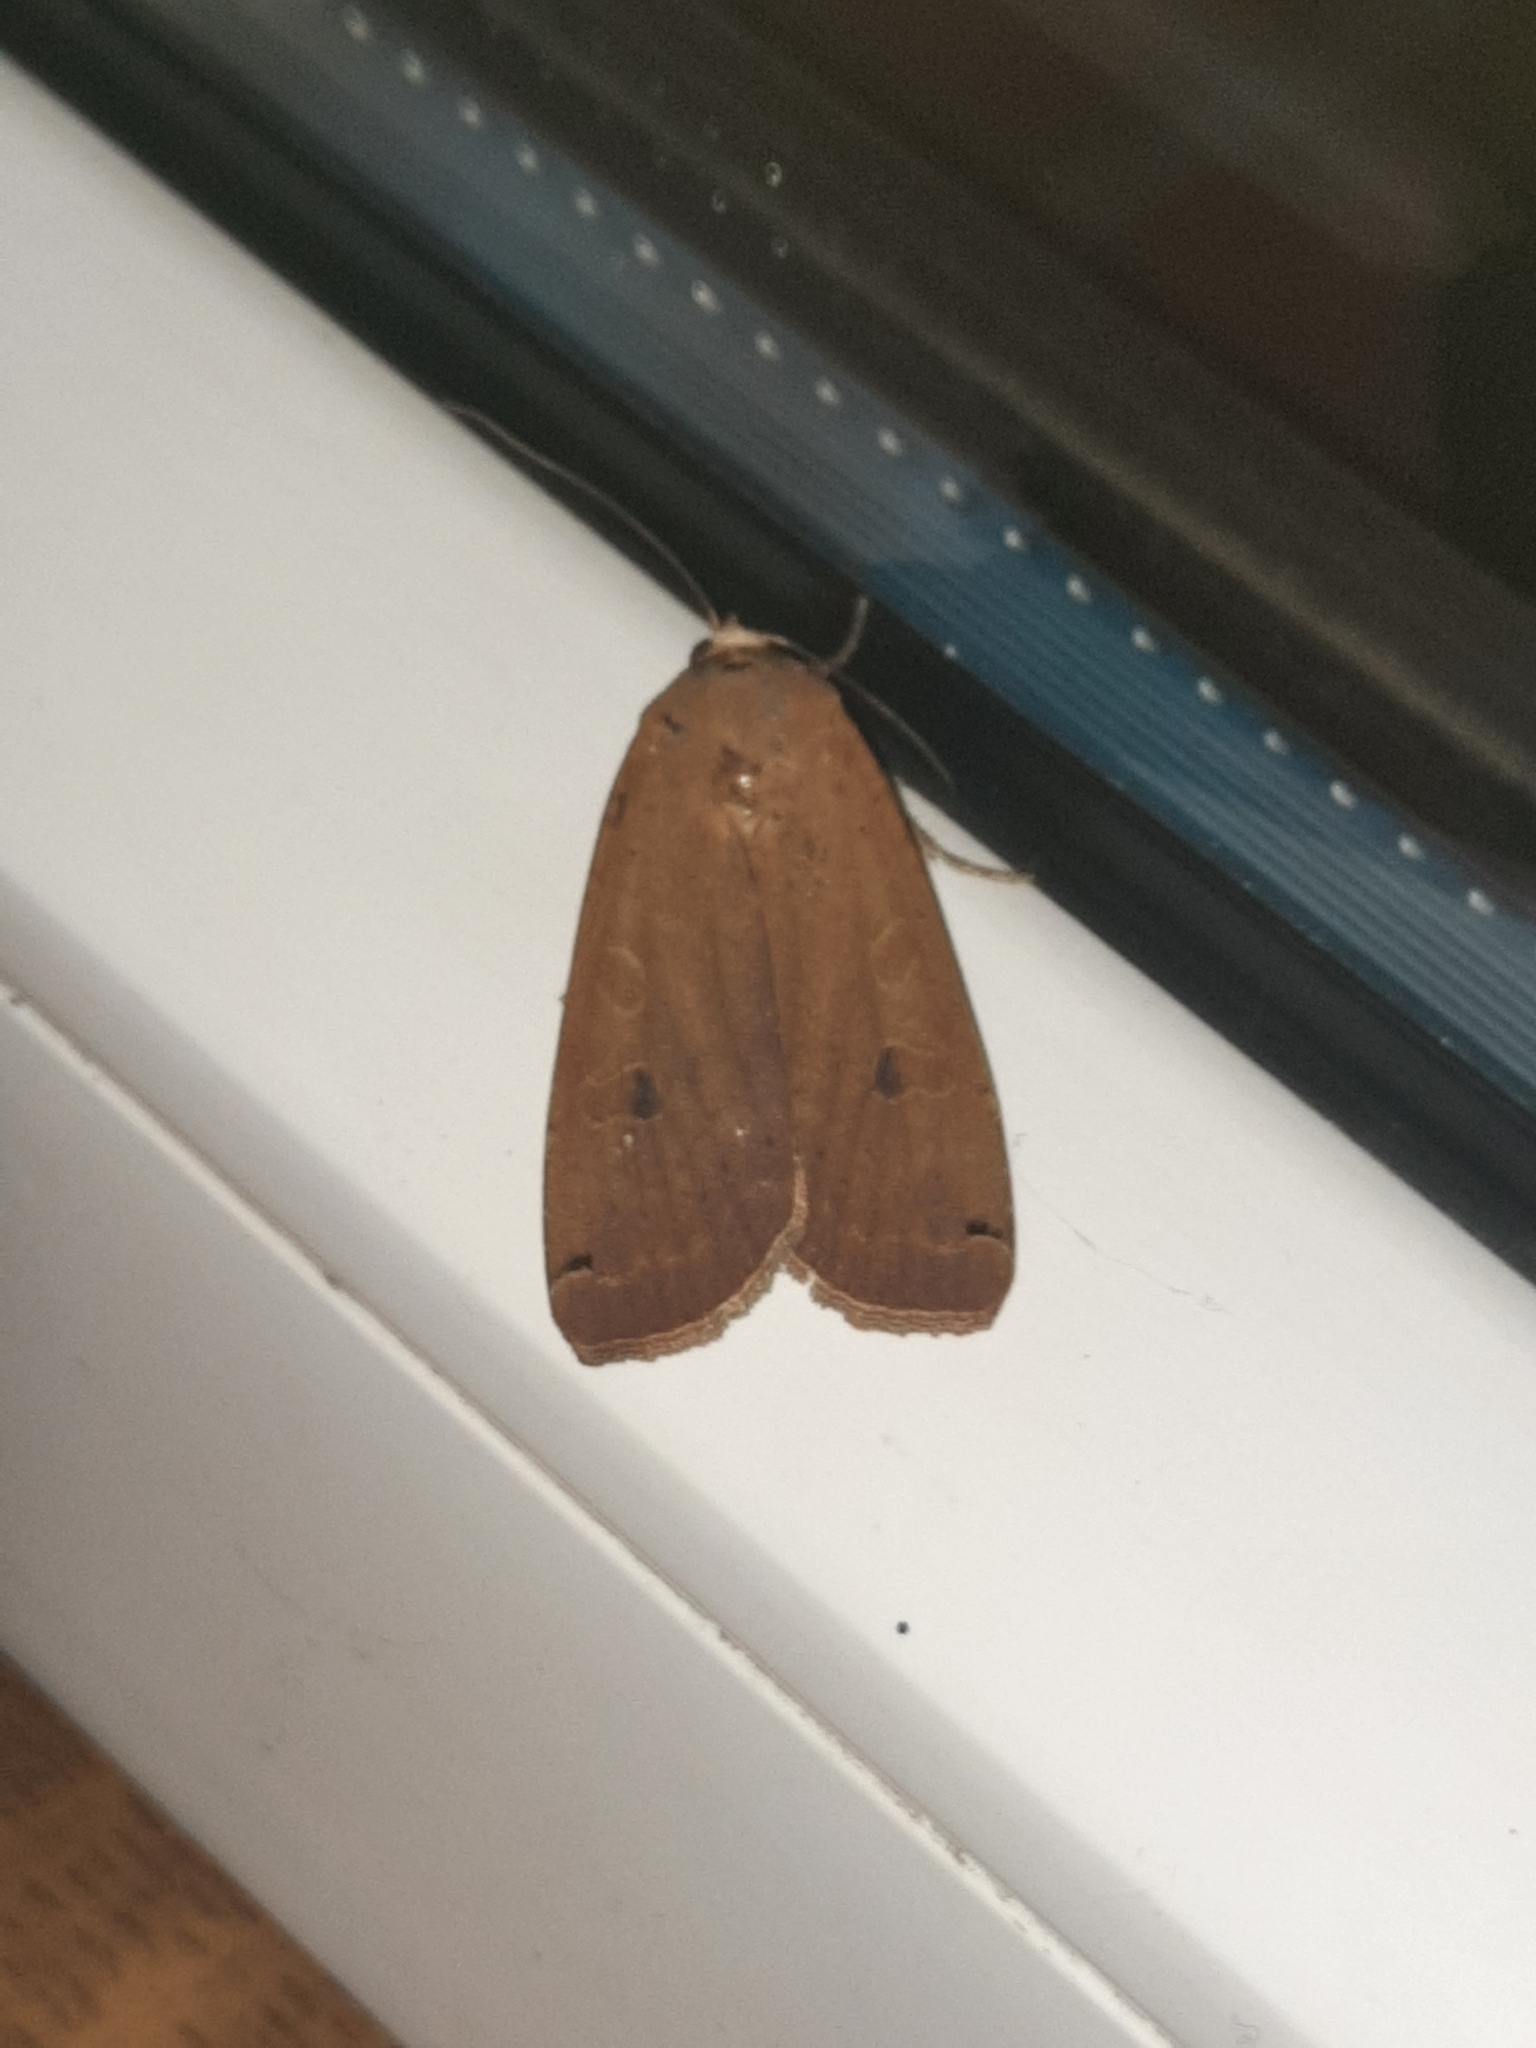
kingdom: Animalia
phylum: Arthropoda
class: Insecta
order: Lepidoptera
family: Noctuidae
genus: Noctua
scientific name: Noctua pronuba
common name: Large yellow underwing
